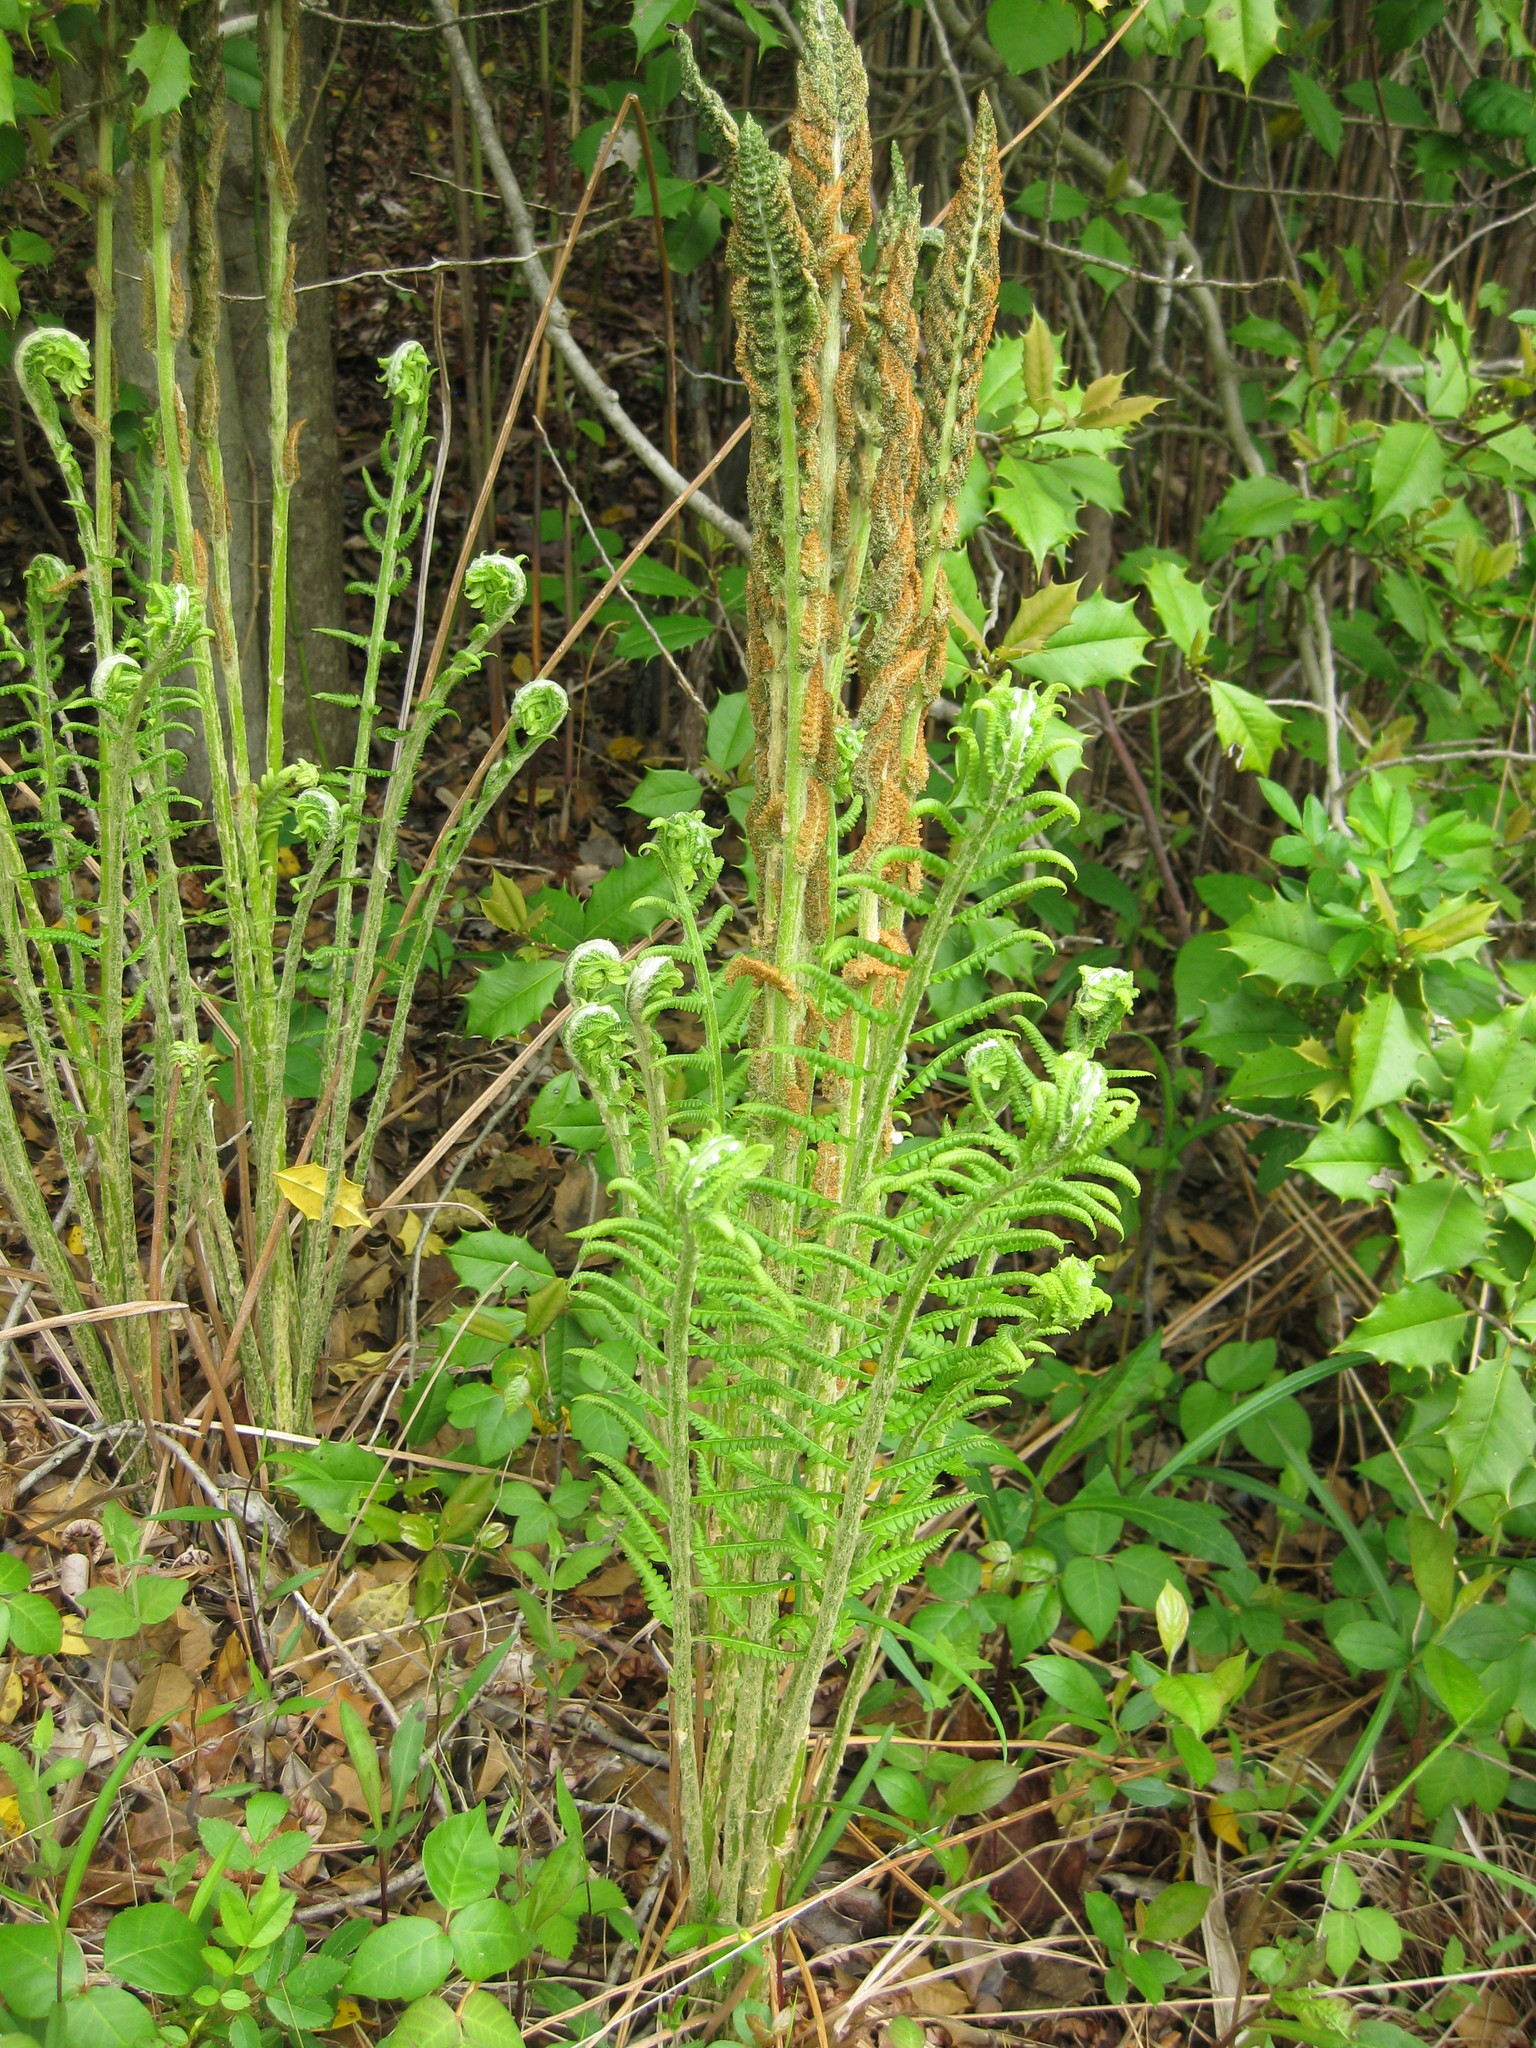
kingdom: Plantae
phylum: Tracheophyta
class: Polypodiopsida
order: Osmundales
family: Osmundaceae
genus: Osmundastrum
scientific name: Osmundastrum cinnamomeum
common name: Cinnamon fern
